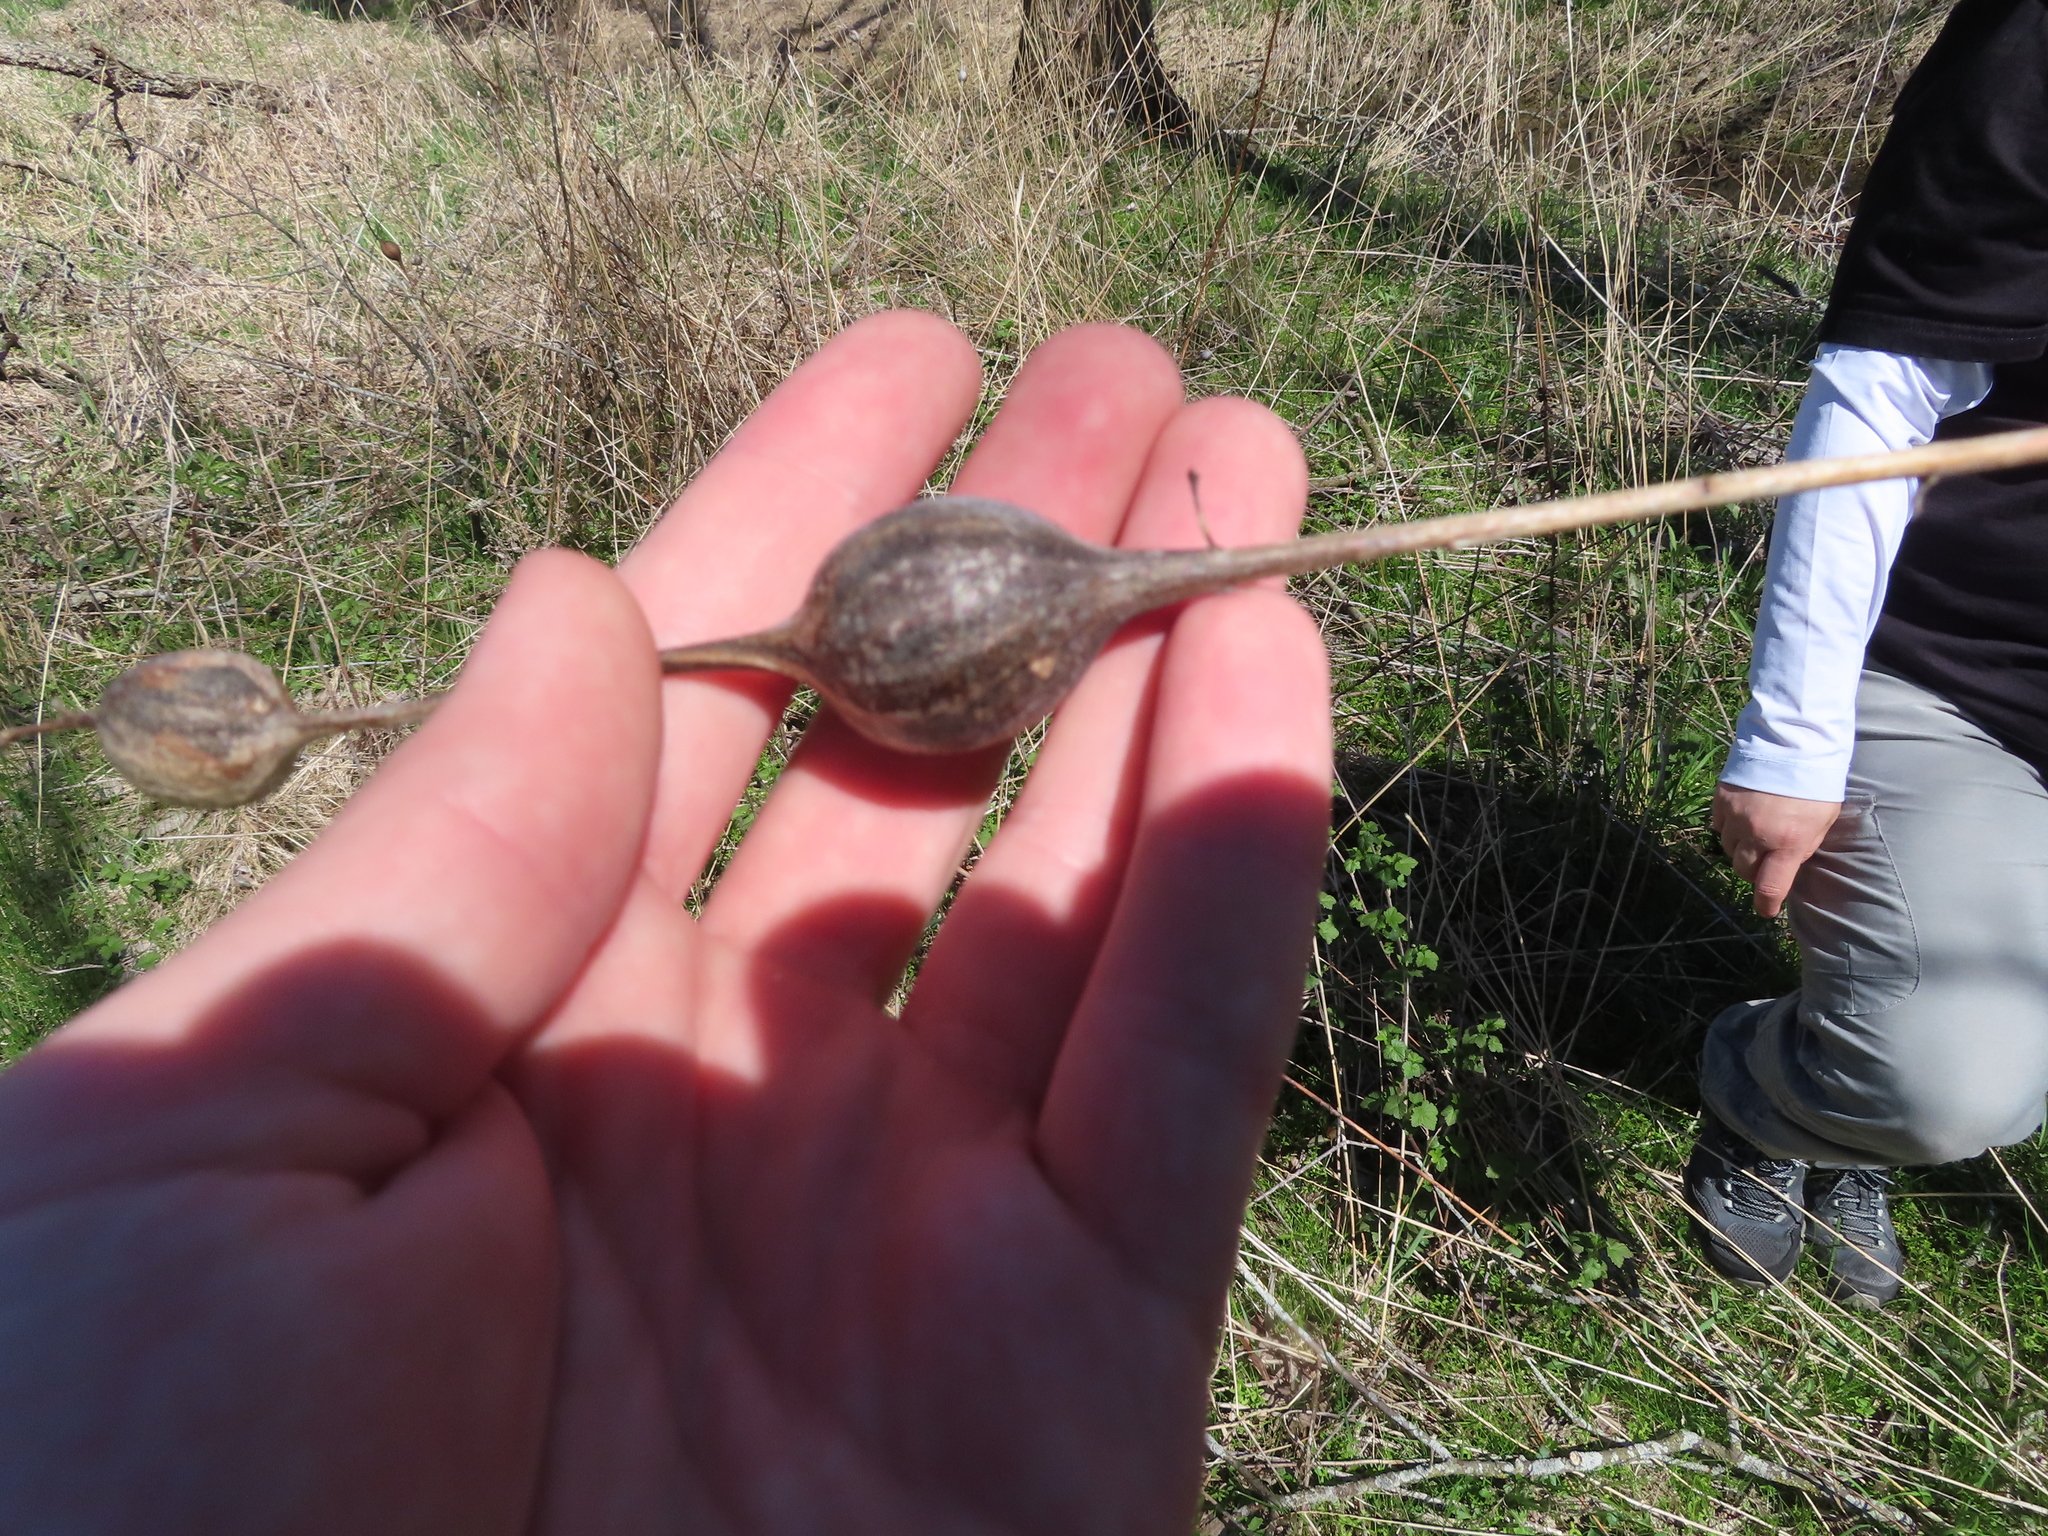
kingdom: Animalia
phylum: Arthropoda
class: Insecta
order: Diptera
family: Tephritidae
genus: Eurosta
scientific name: Eurosta solidaginis
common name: Goldenrod gall fly
